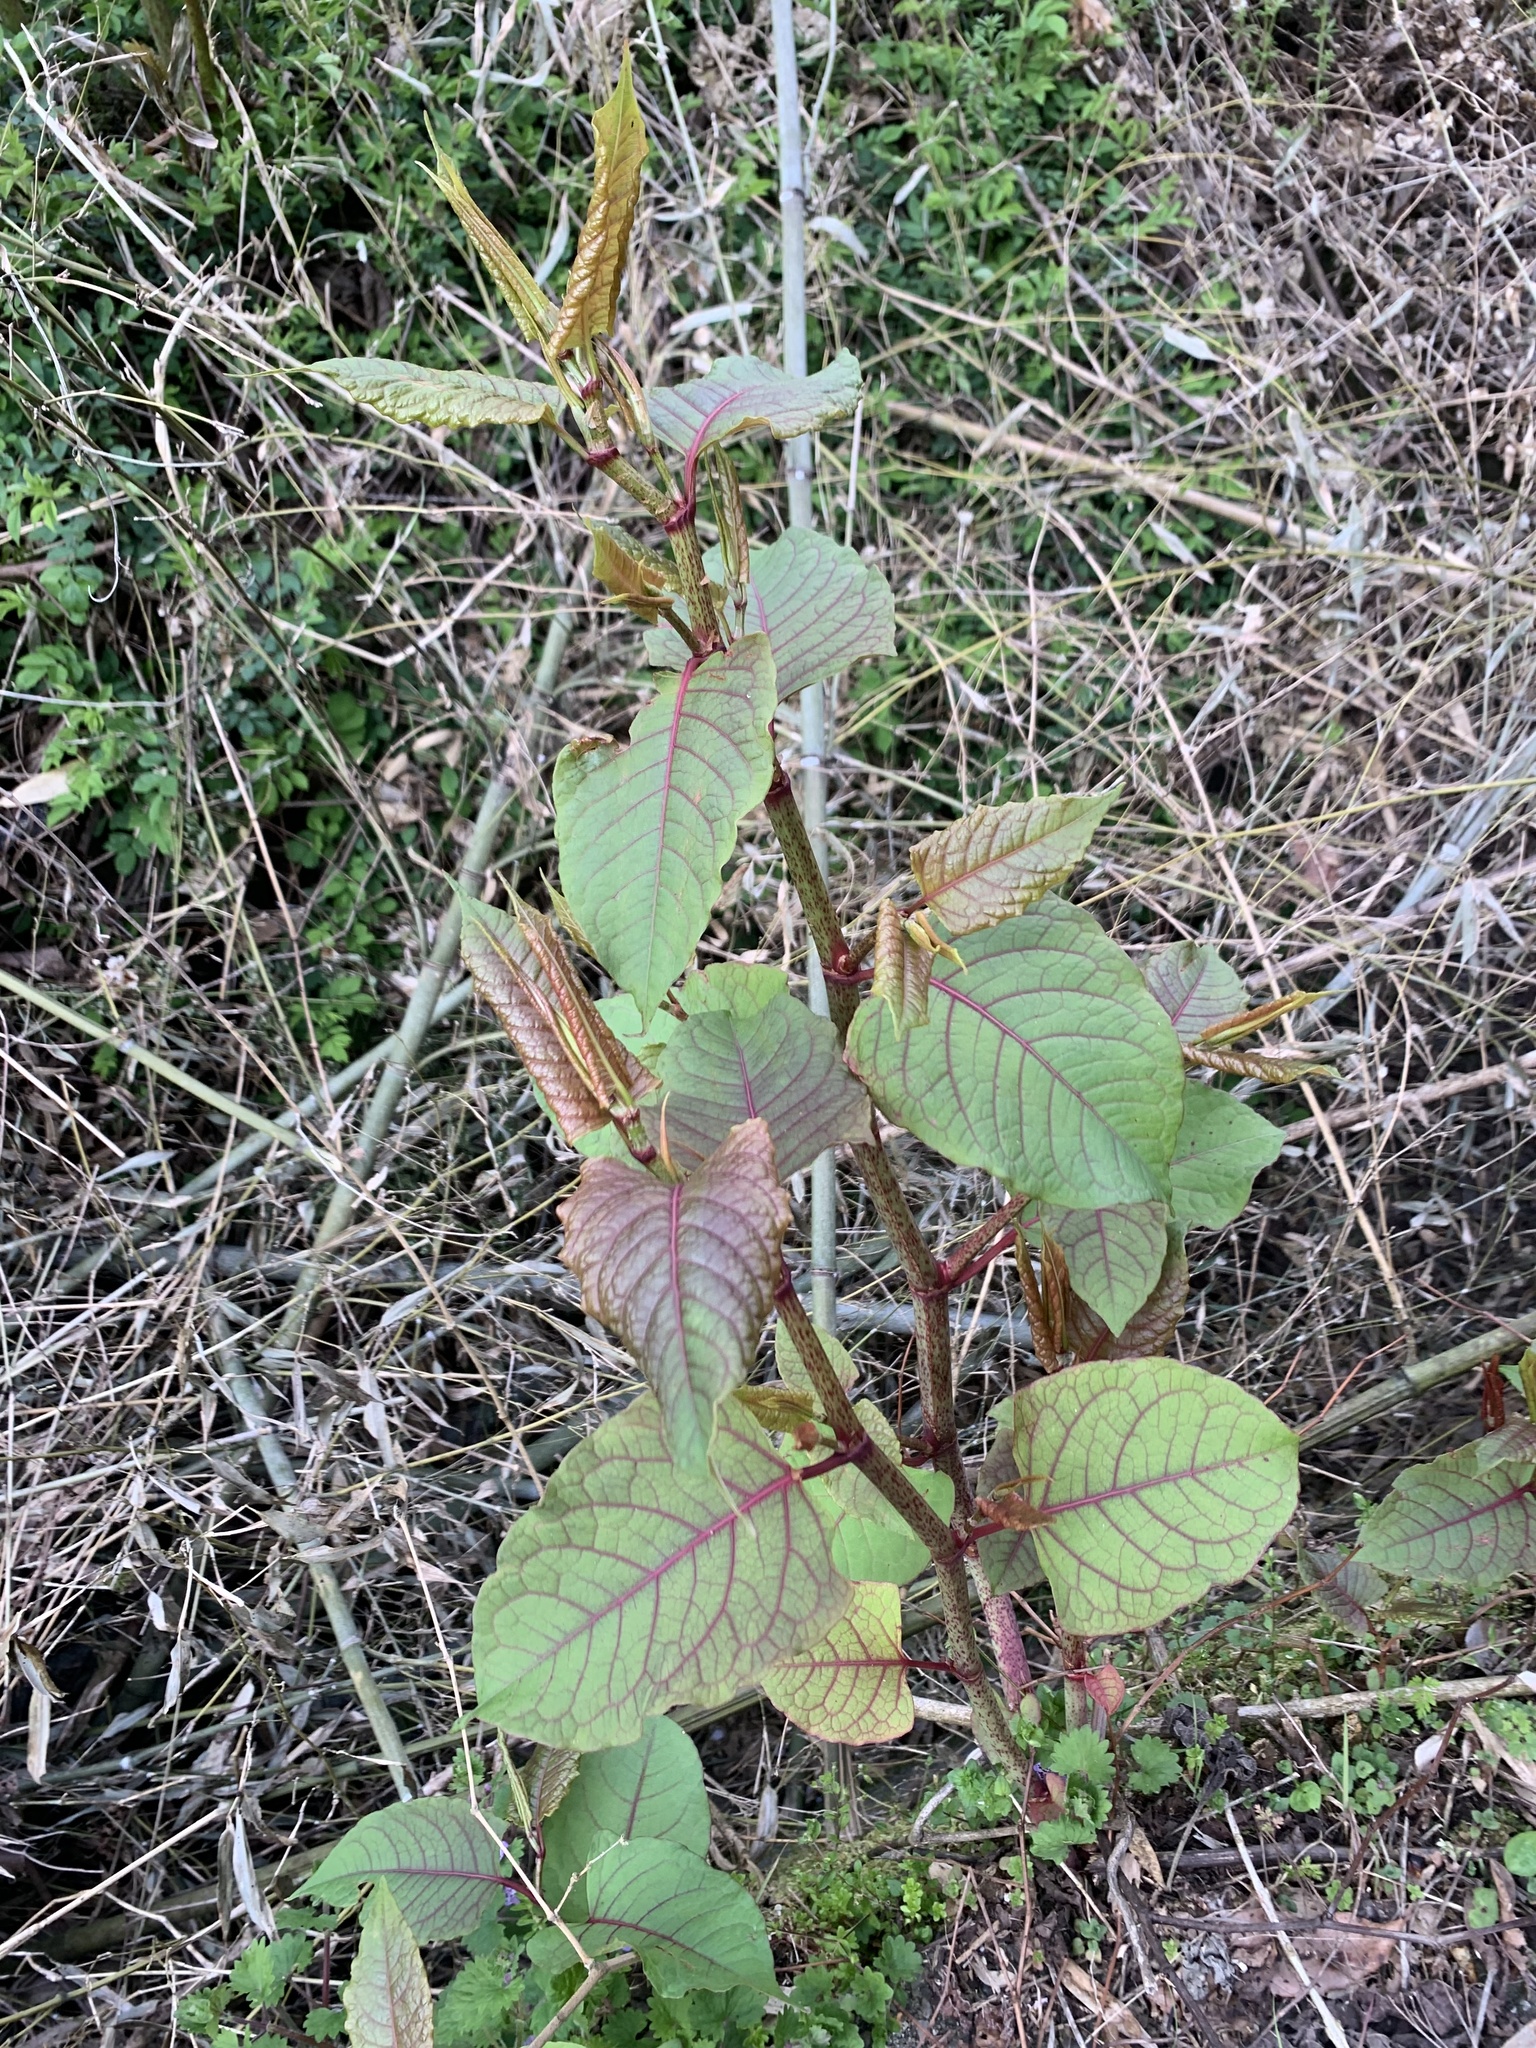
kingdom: Plantae
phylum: Tracheophyta
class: Magnoliopsida
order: Caryophyllales
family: Polygonaceae
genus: Reynoutria
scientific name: Reynoutria japonica
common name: Japanese knotweed
